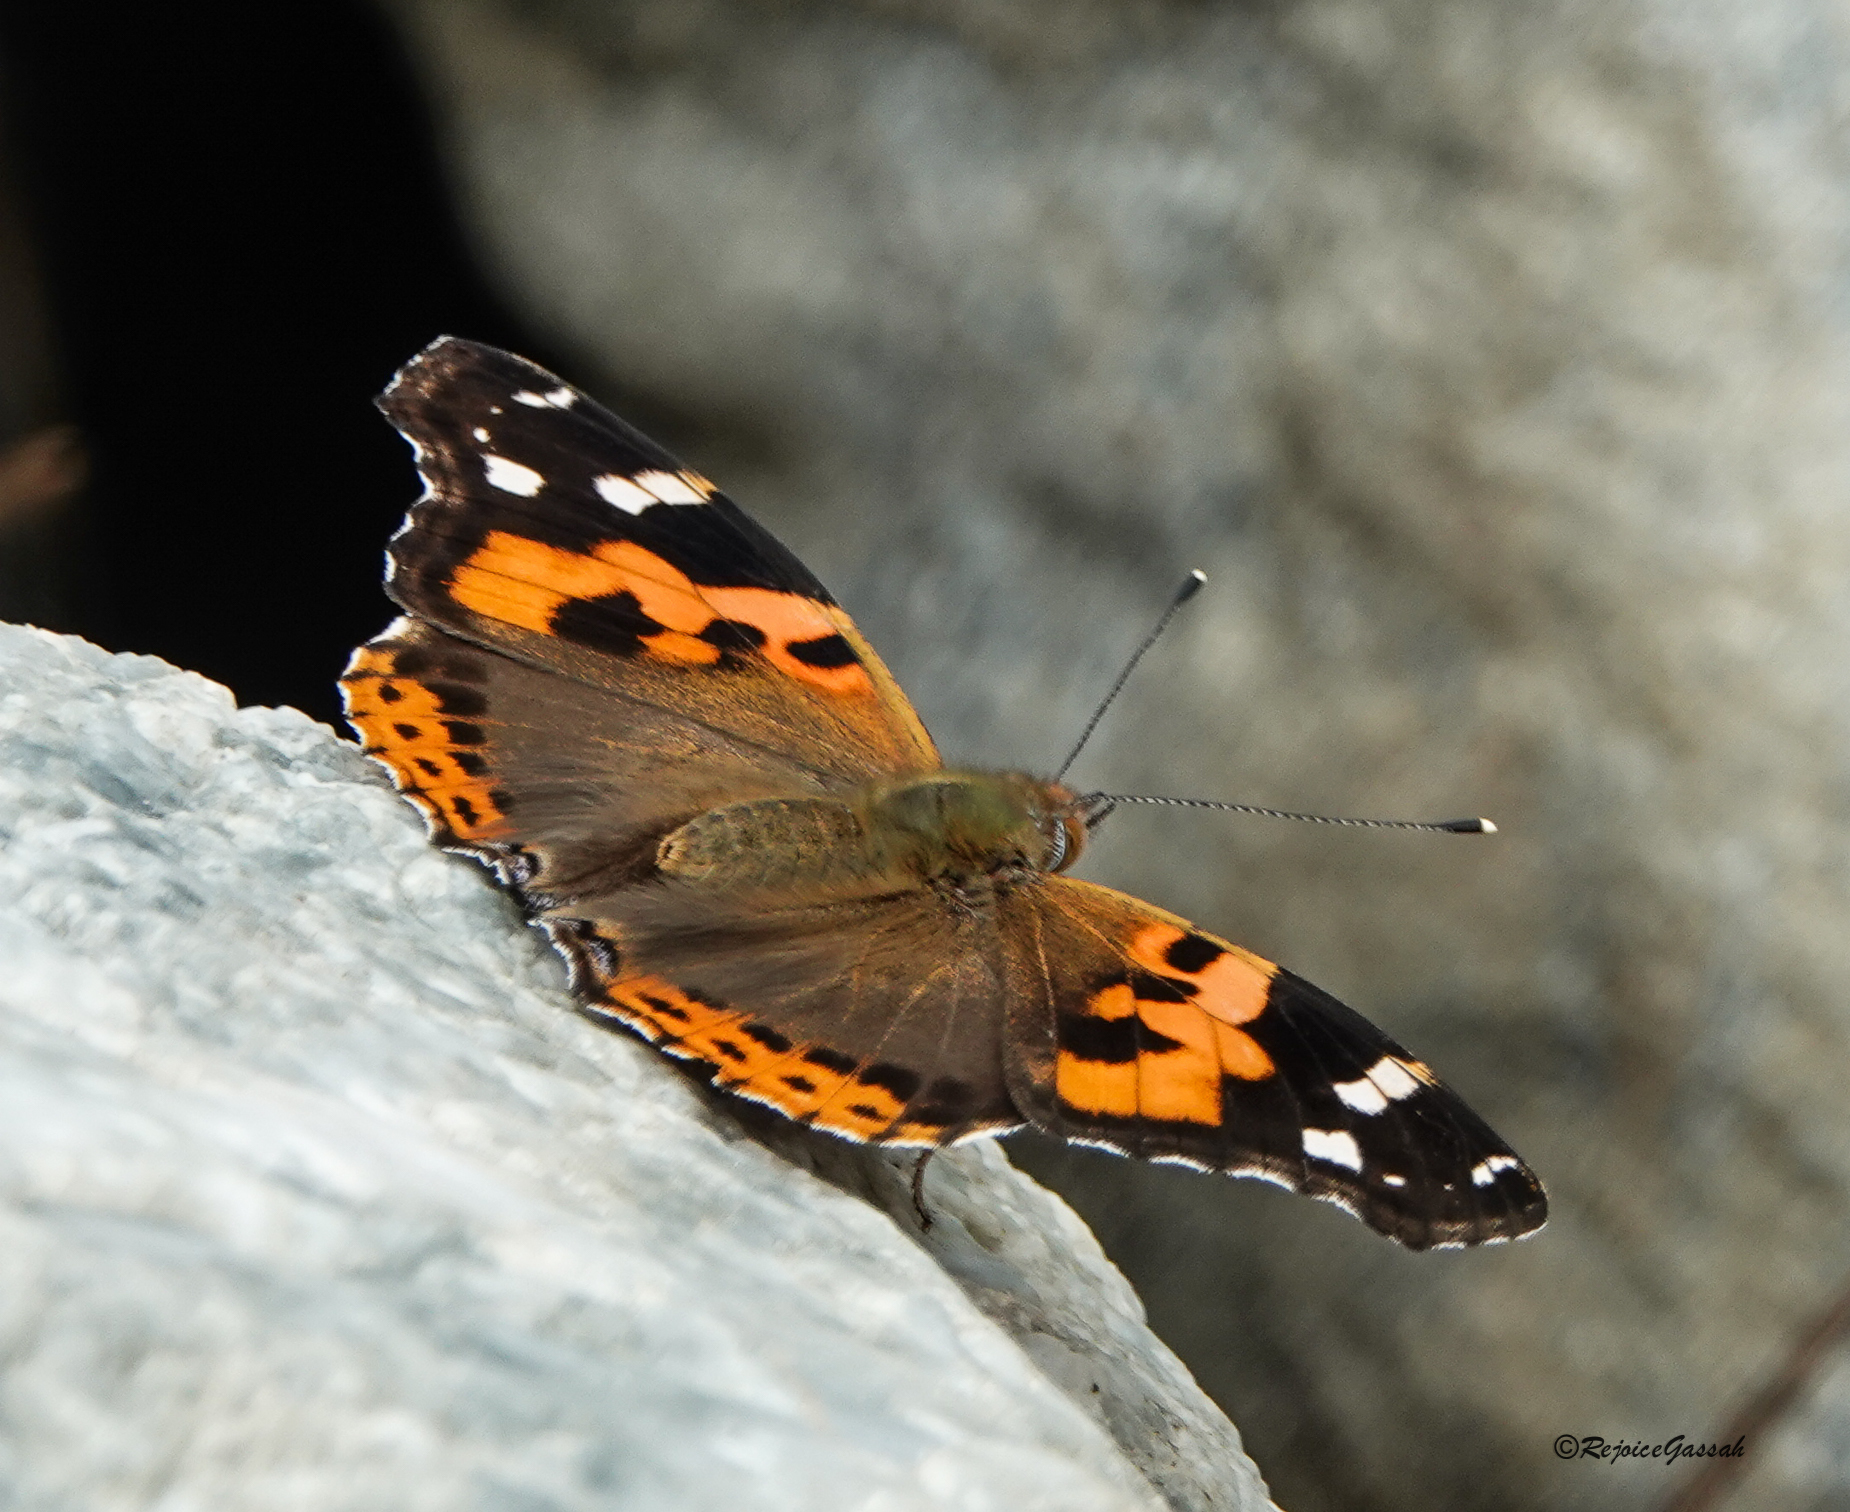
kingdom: Animalia
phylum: Arthropoda
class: Insecta
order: Lepidoptera
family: Nymphalidae
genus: Vanessa
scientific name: Vanessa indica
